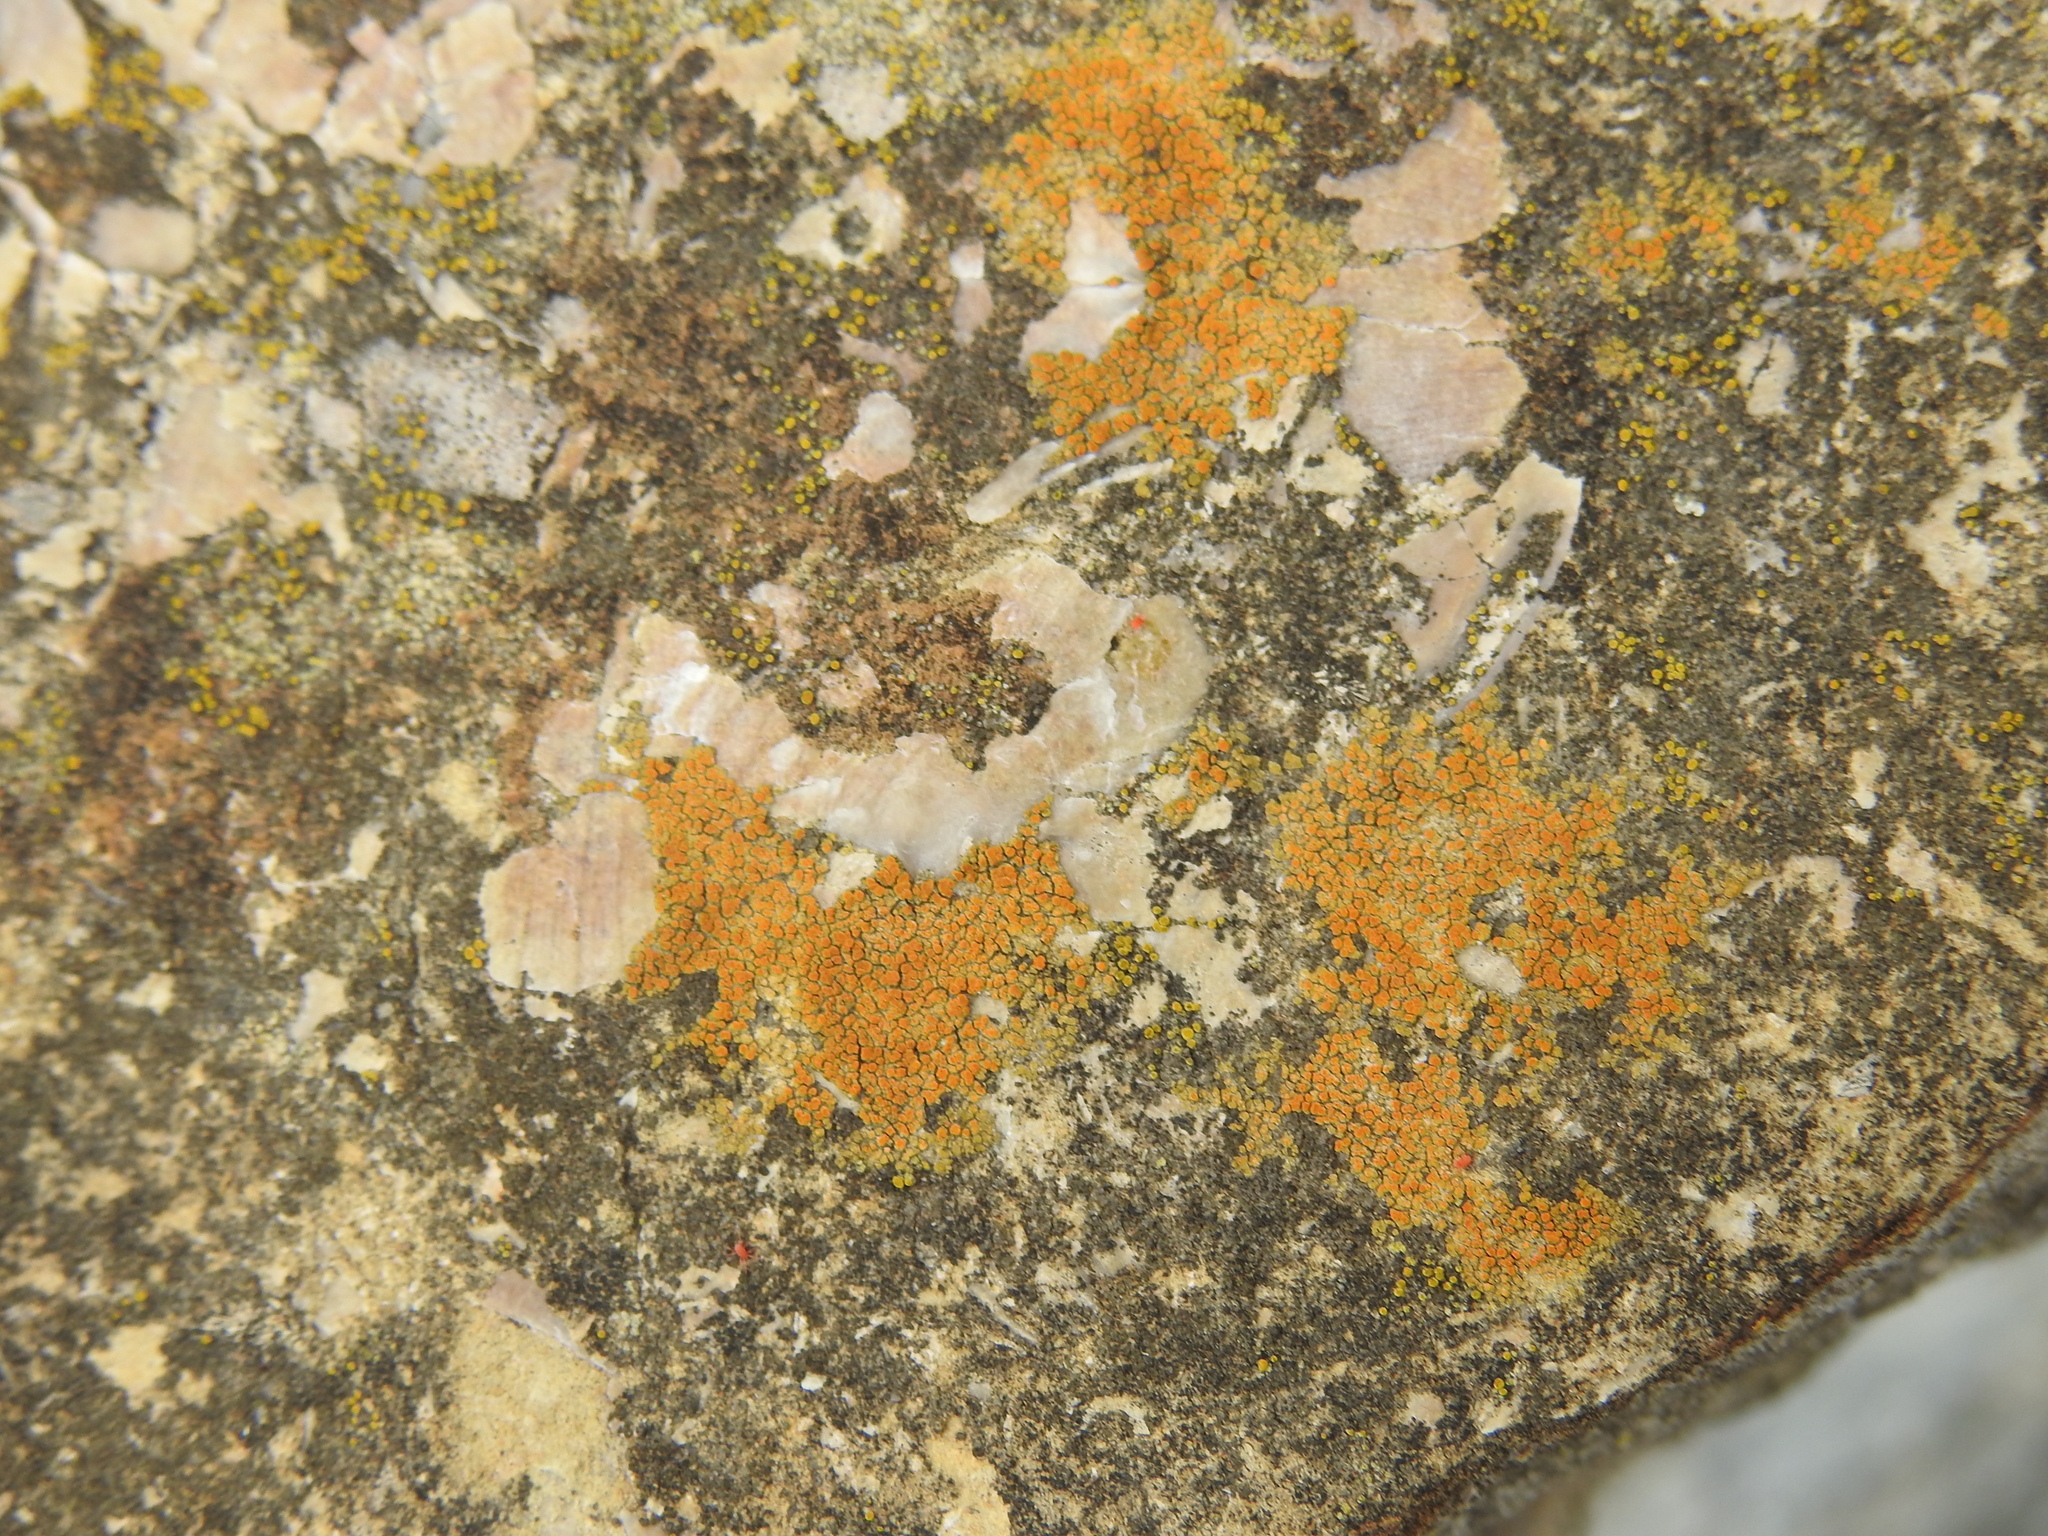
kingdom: Fungi
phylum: Ascomycota
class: Lecanoromycetes
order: Teloschistales
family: Teloschistaceae
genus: Xanthocarpia
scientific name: Xanthocarpia feracissima
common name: Sidewalk firedot
